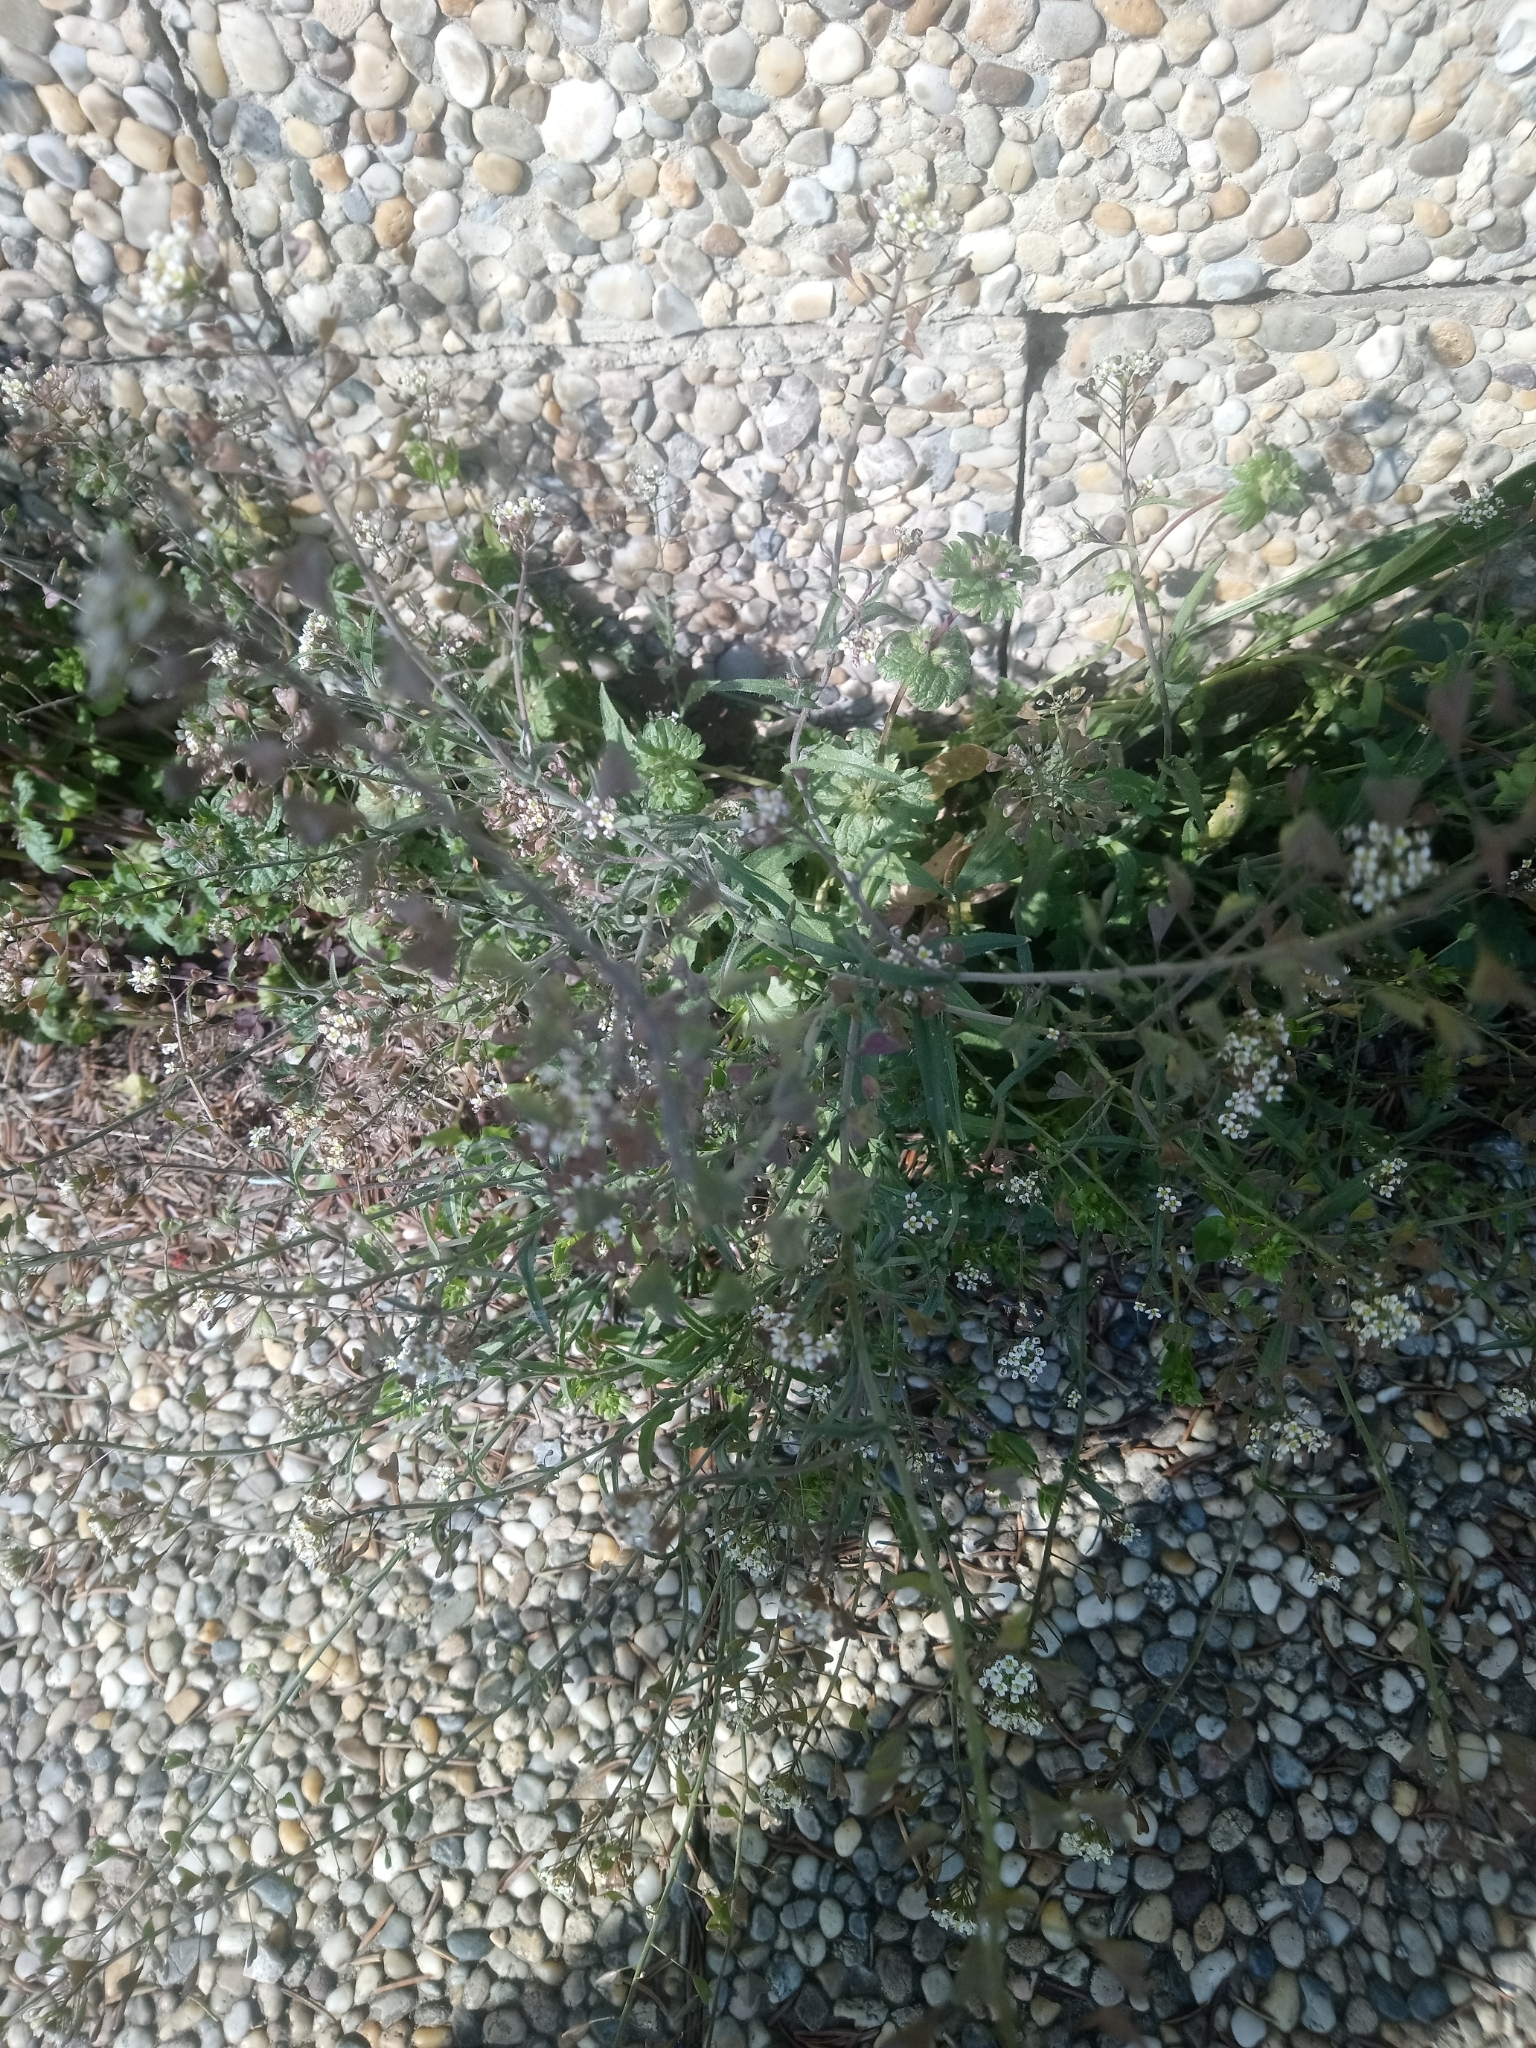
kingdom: Plantae
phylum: Tracheophyta
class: Magnoliopsida
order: Brassicales
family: Brassicaceae
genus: Capsella
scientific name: Capsella bursa-pastoris
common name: Shepherd's purse
